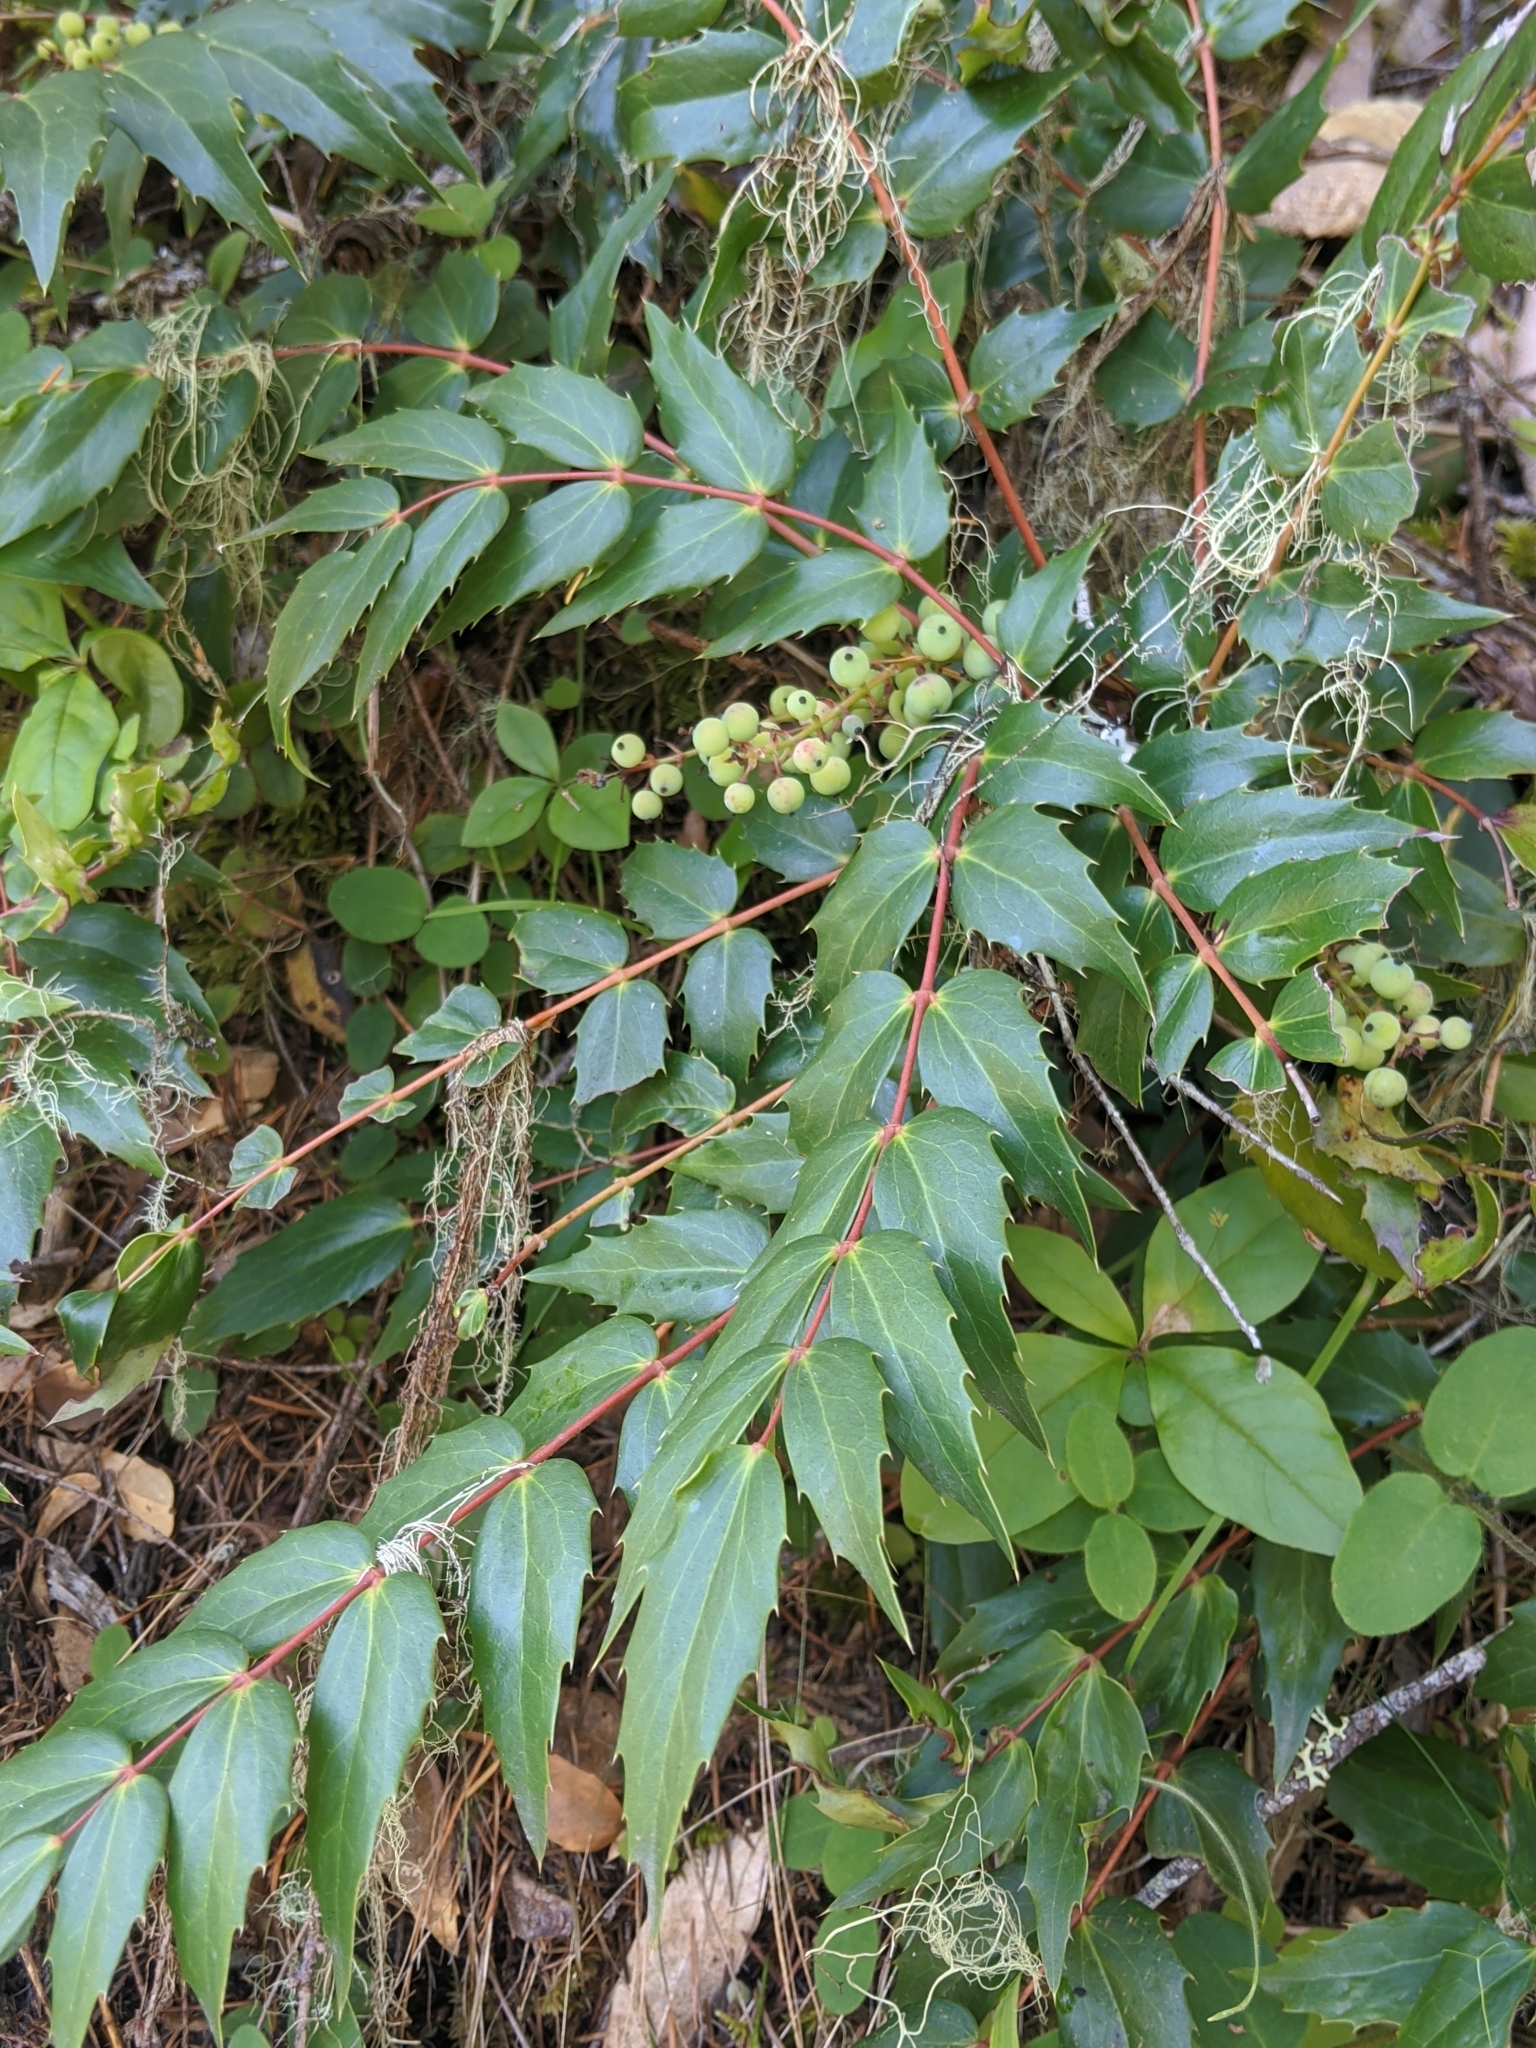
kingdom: Plantae
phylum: Tracheophyta
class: Magnoliopsida
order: Ranunculales
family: Berberidaceae
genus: Mahonia
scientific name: Mahonia nervosa
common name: Cascade oregon-grape
